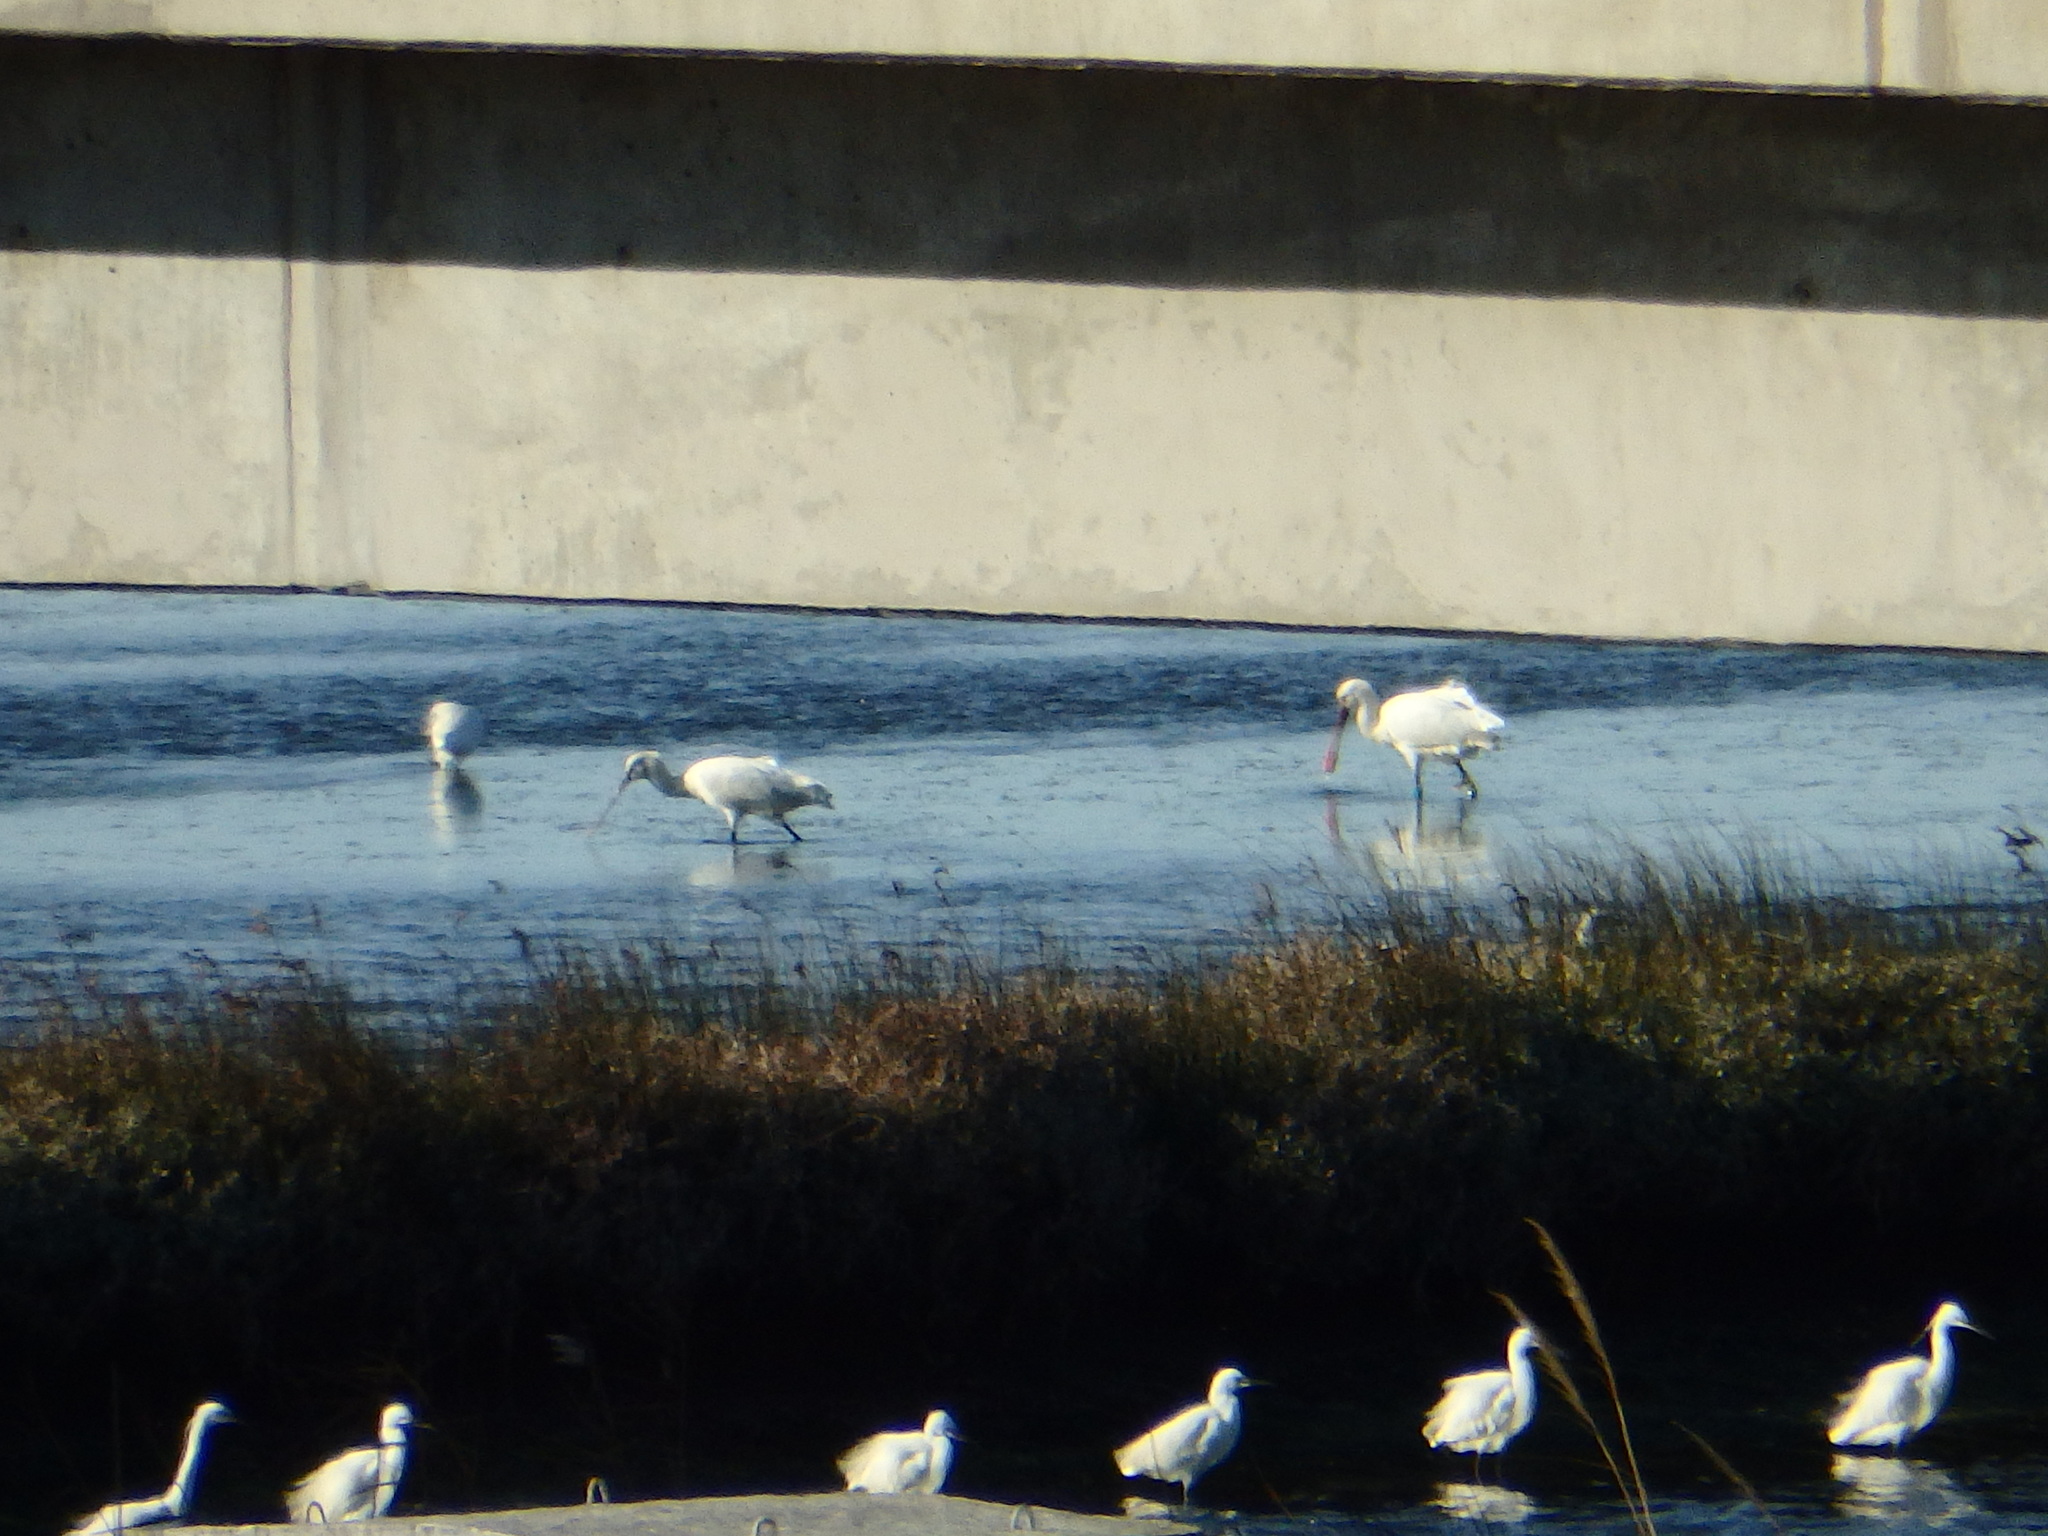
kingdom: Animalia
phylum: Chordata
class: Aves
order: Pelecaniformes
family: Threskiornithidae
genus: Platalea
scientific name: Platalea leucorodia
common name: Eurasian spoonbill
